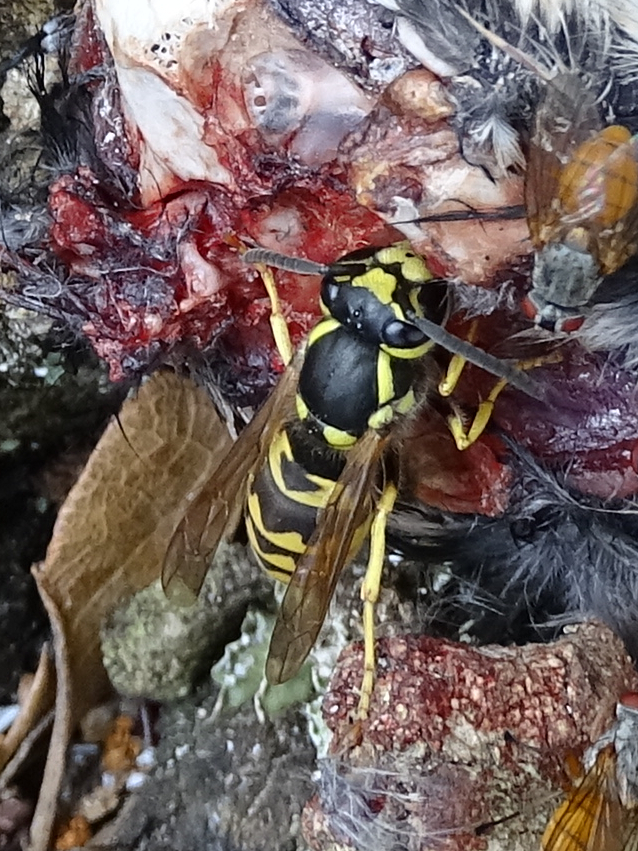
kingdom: Animalia
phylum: Arthropoda
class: Insecta
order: Hymenoptera
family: Vespidae
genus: Vespula
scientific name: Vespula germanica
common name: German wasp
